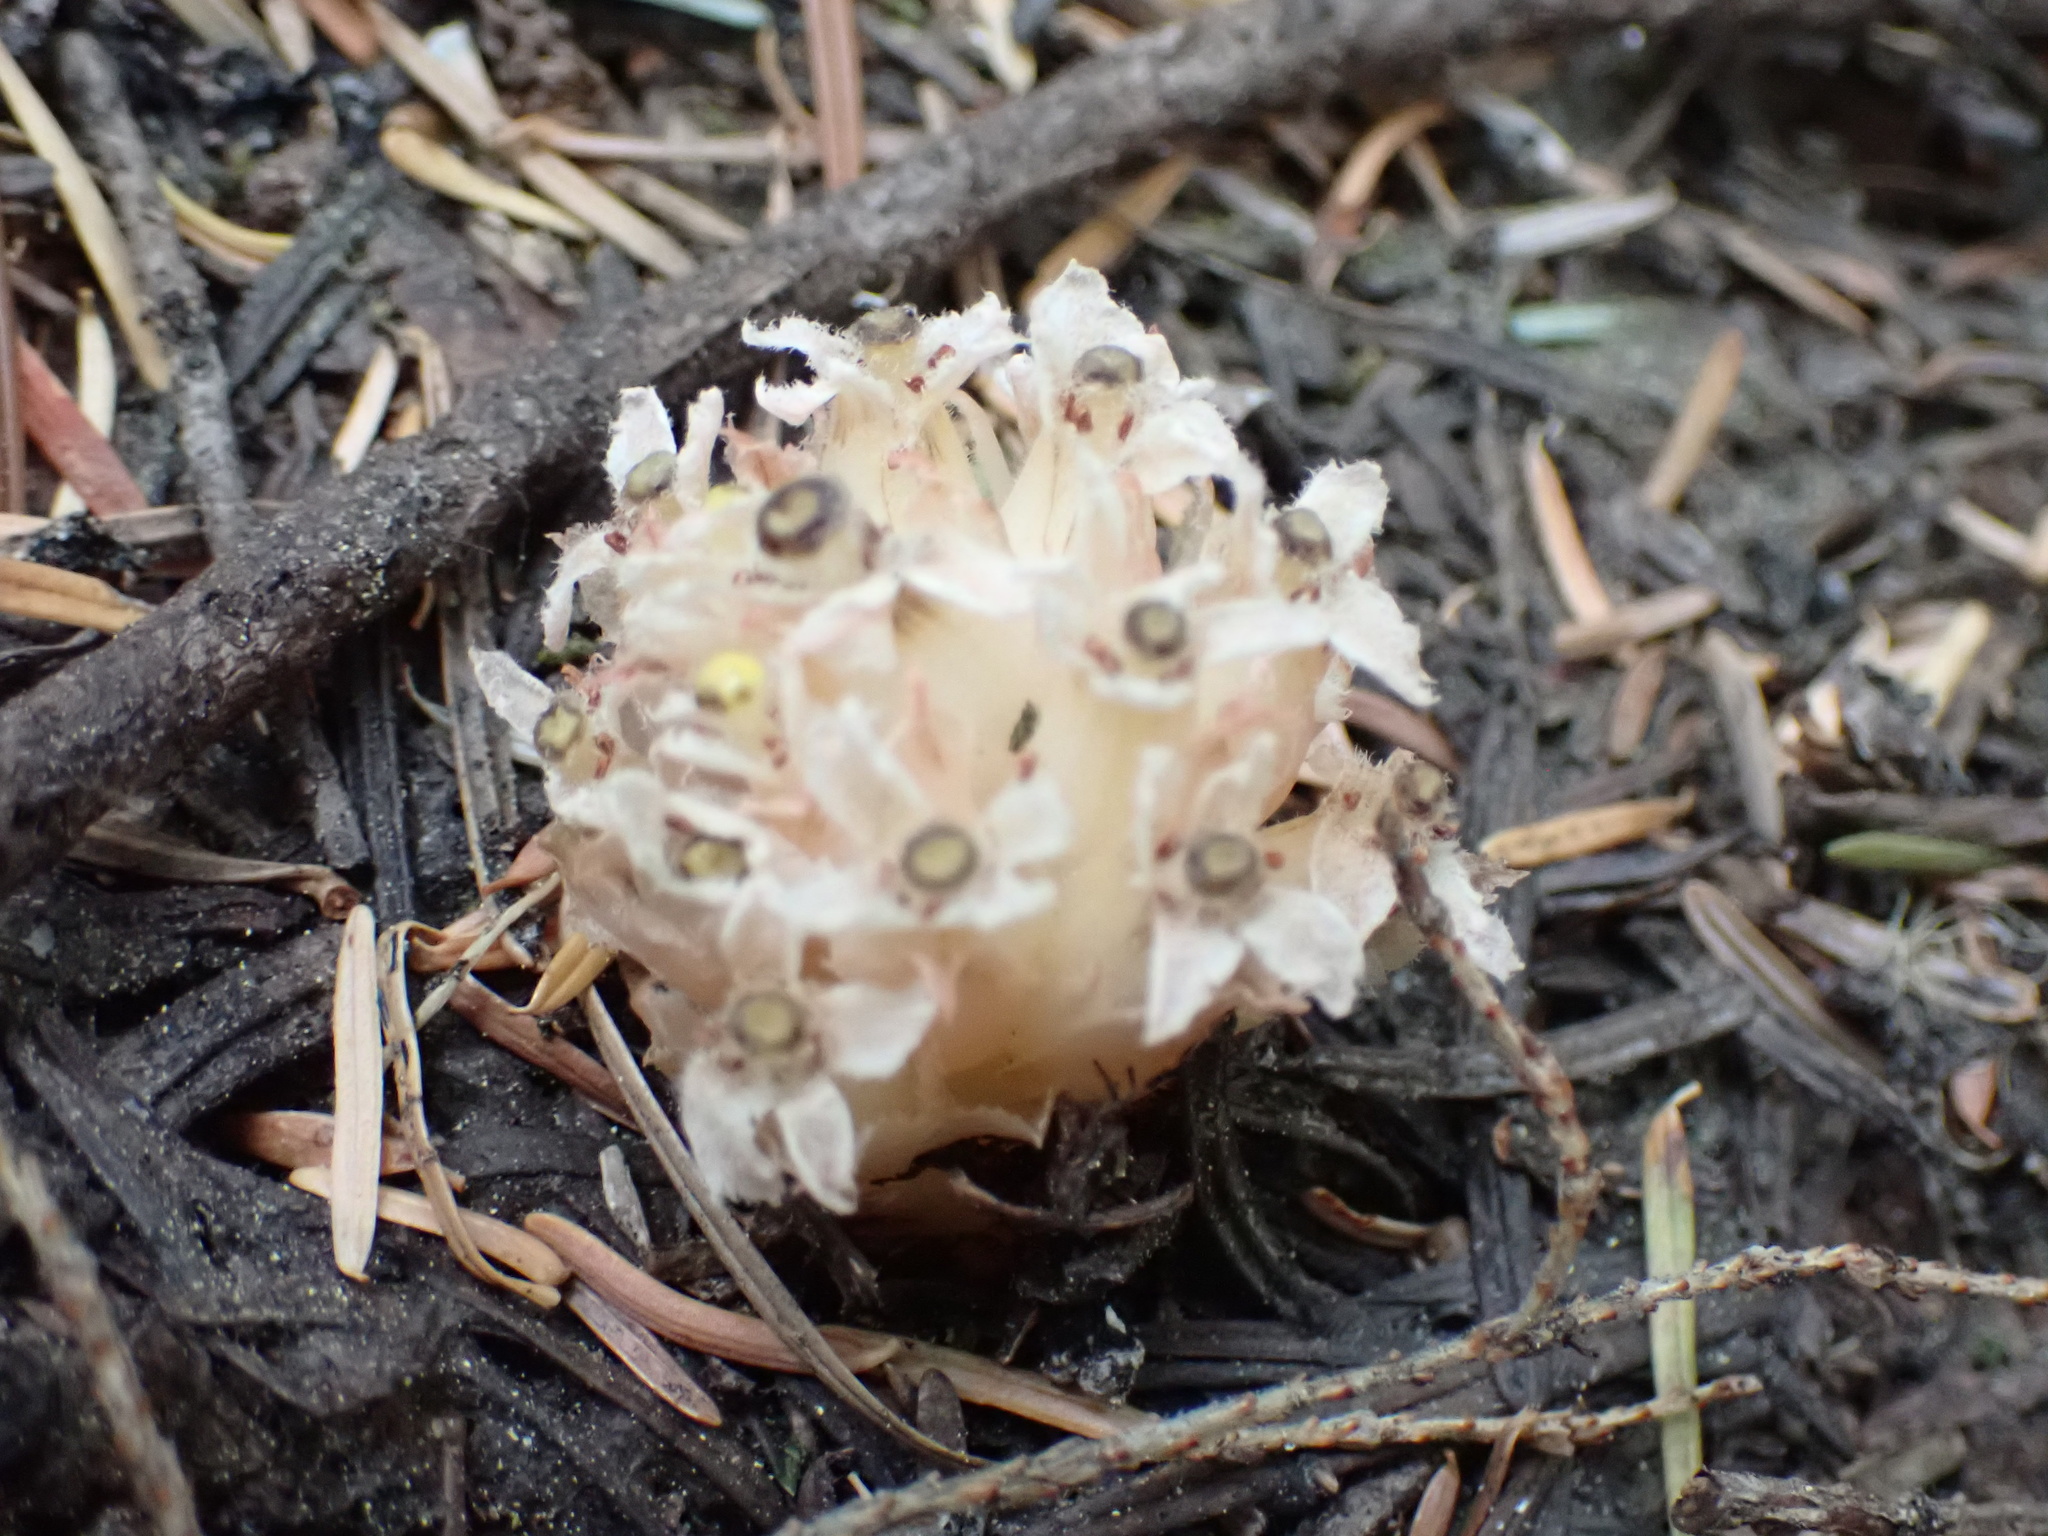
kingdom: Plantae
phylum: Tracheophyta
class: Magnoliopsida
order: Ericales
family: Ericaceae
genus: Hemitomes
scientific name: Hemitomes congestum
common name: Cone plant
